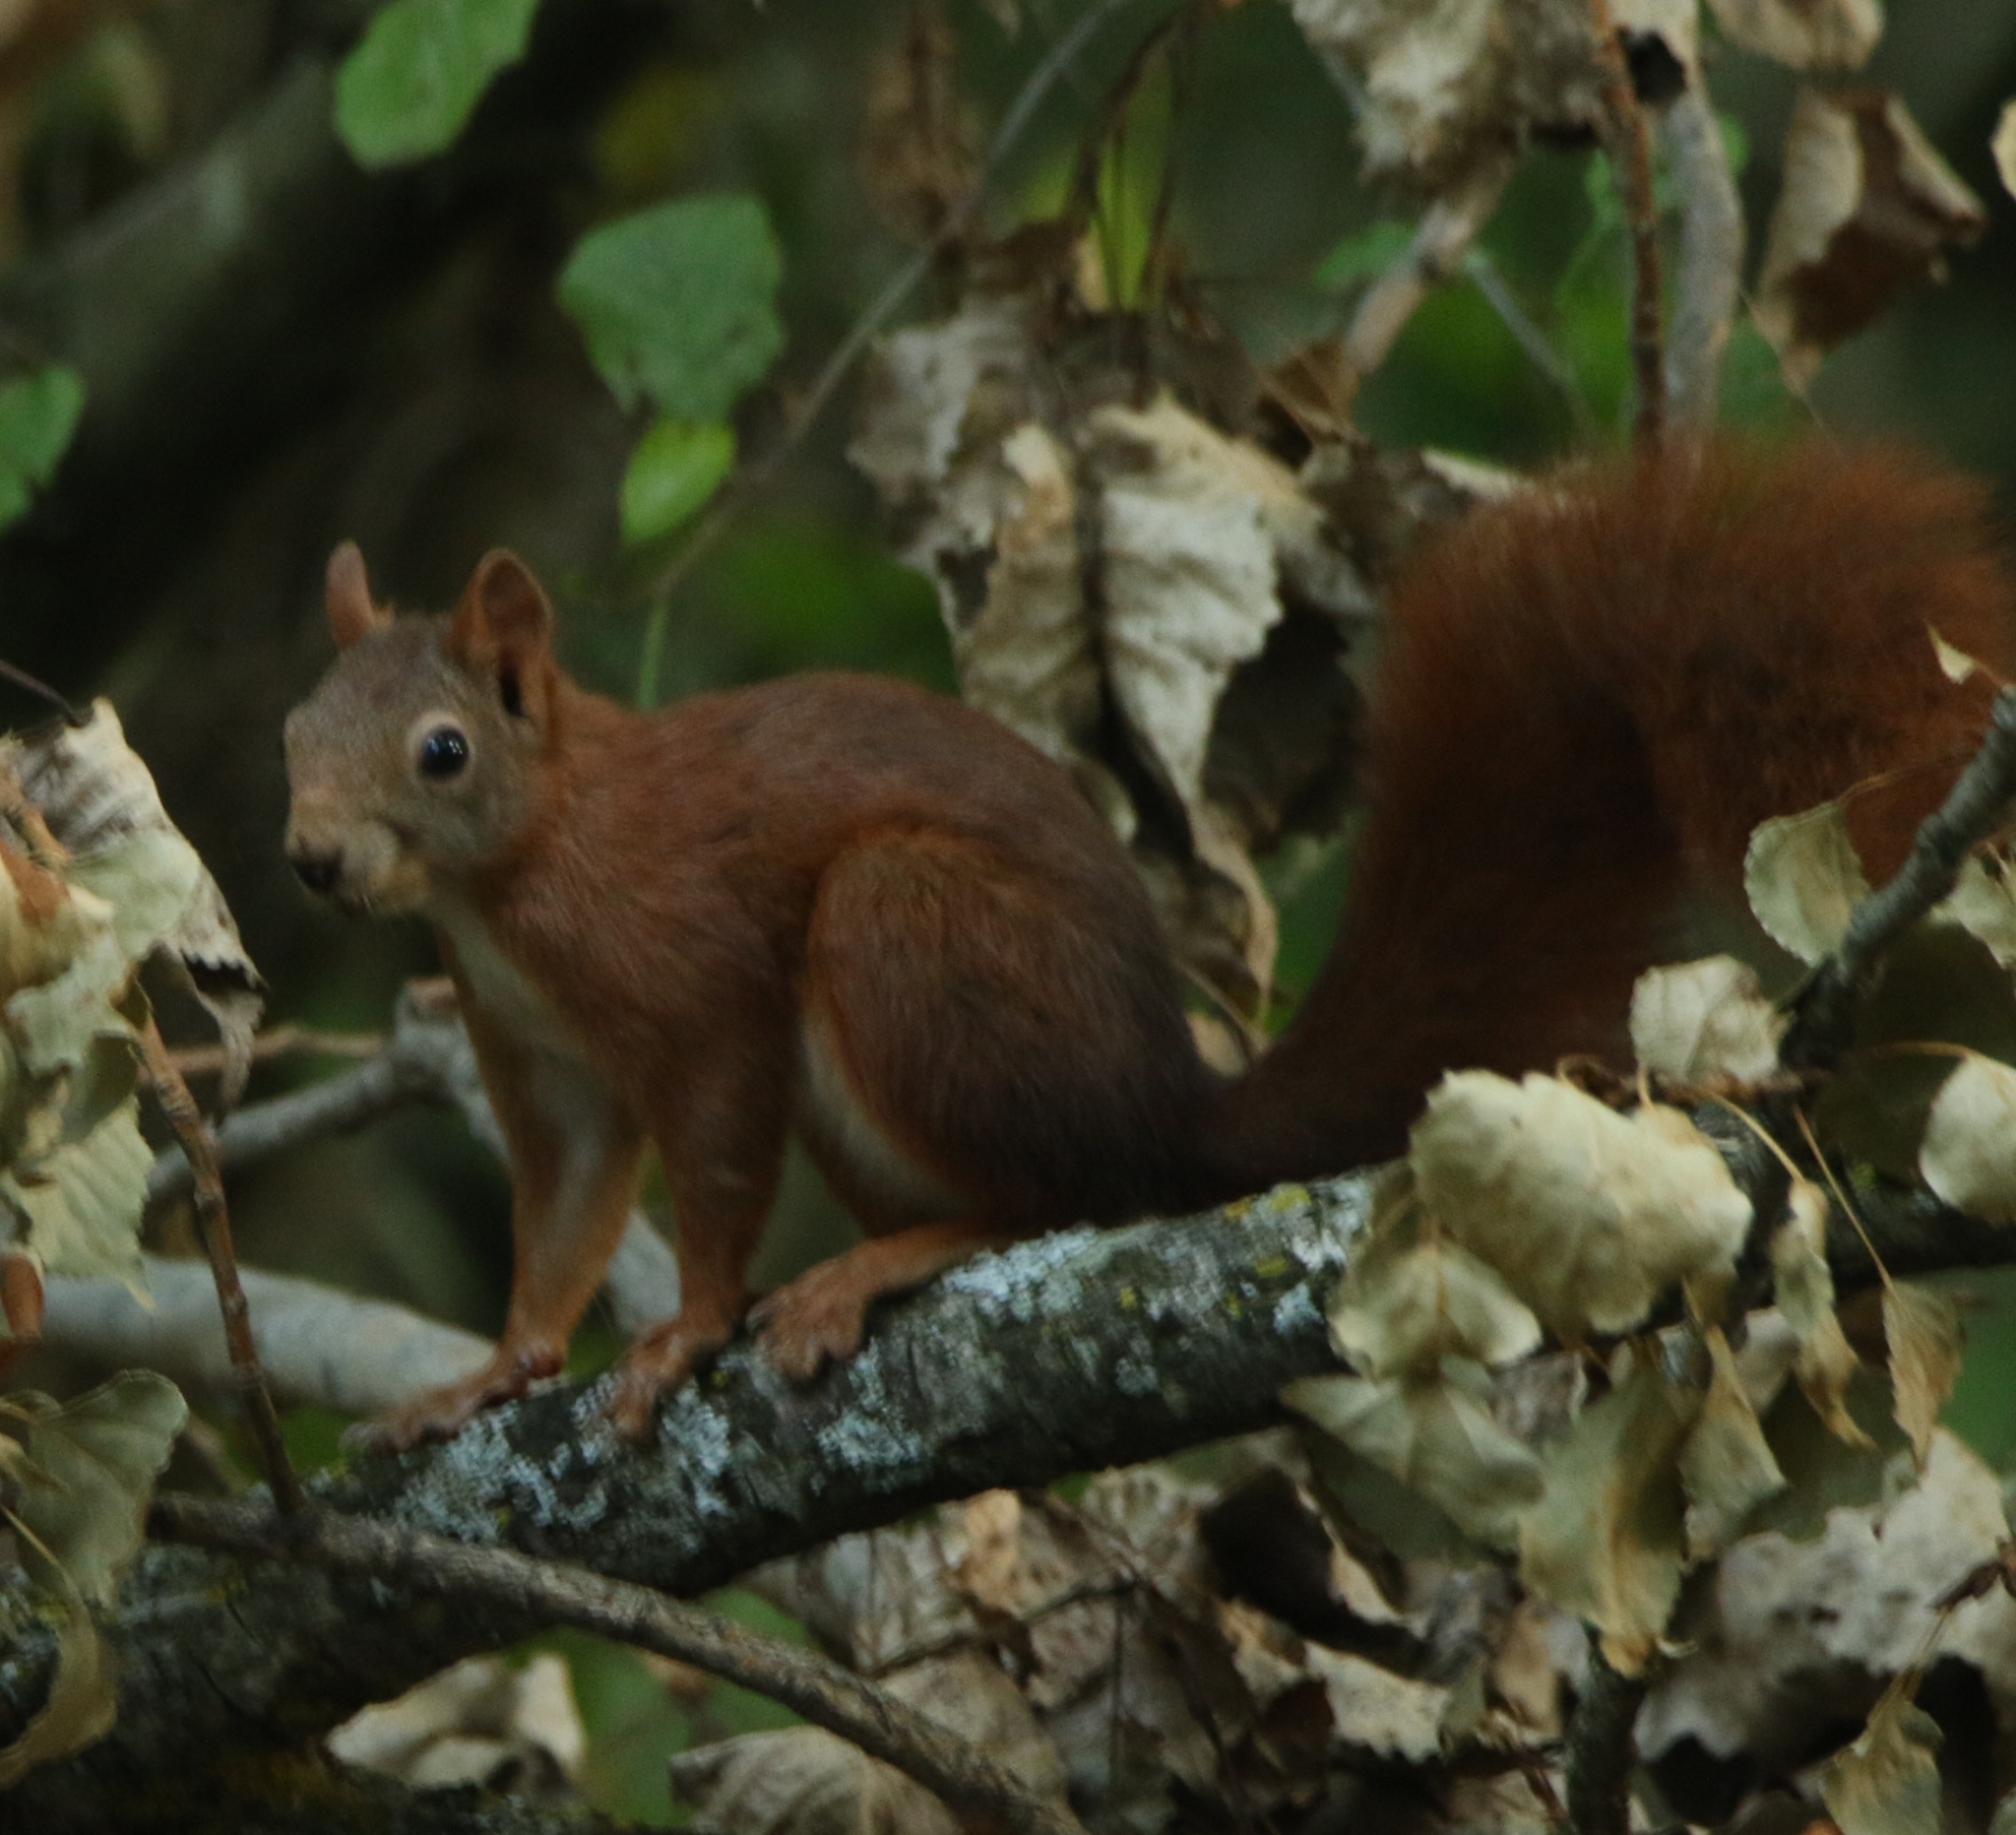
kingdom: Animalia
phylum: Chordata
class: Mammalia
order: Rodentia
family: Sciuridae
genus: Sciurus
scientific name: Sciurus vulgaris
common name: Eurasian red squirrel
